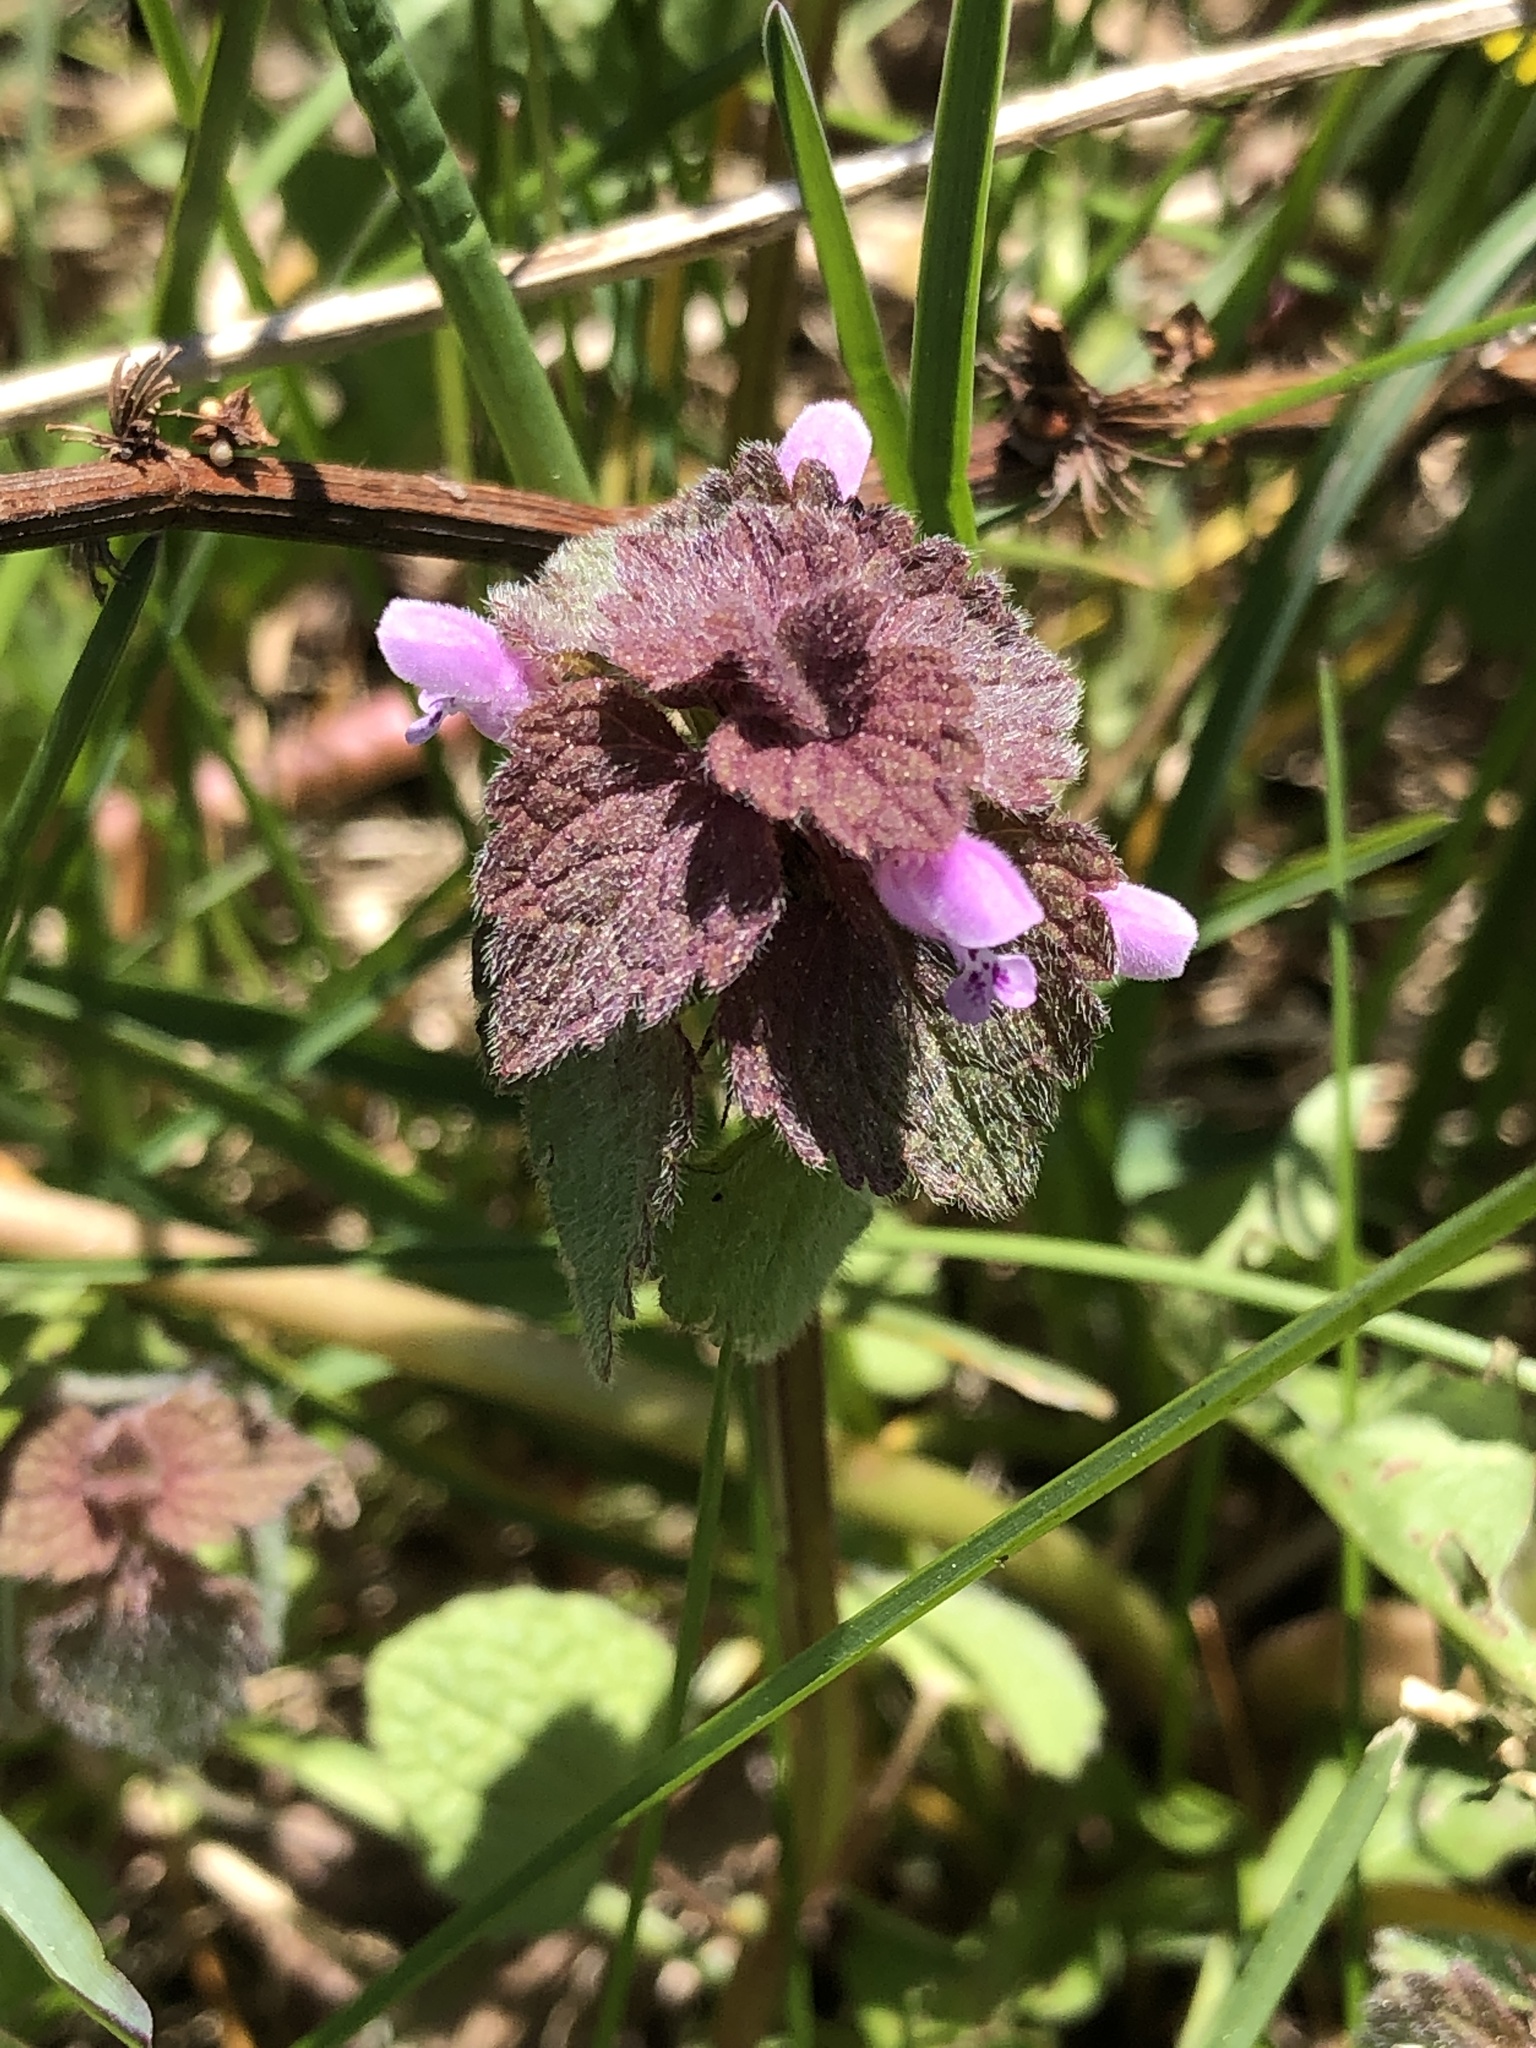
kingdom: Plantae
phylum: Tracheophyta
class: Magnoliopsida
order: Lamiales
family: Lamiaceae
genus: Lamium
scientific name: Lamium purpureum
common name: Red dead-nettle
